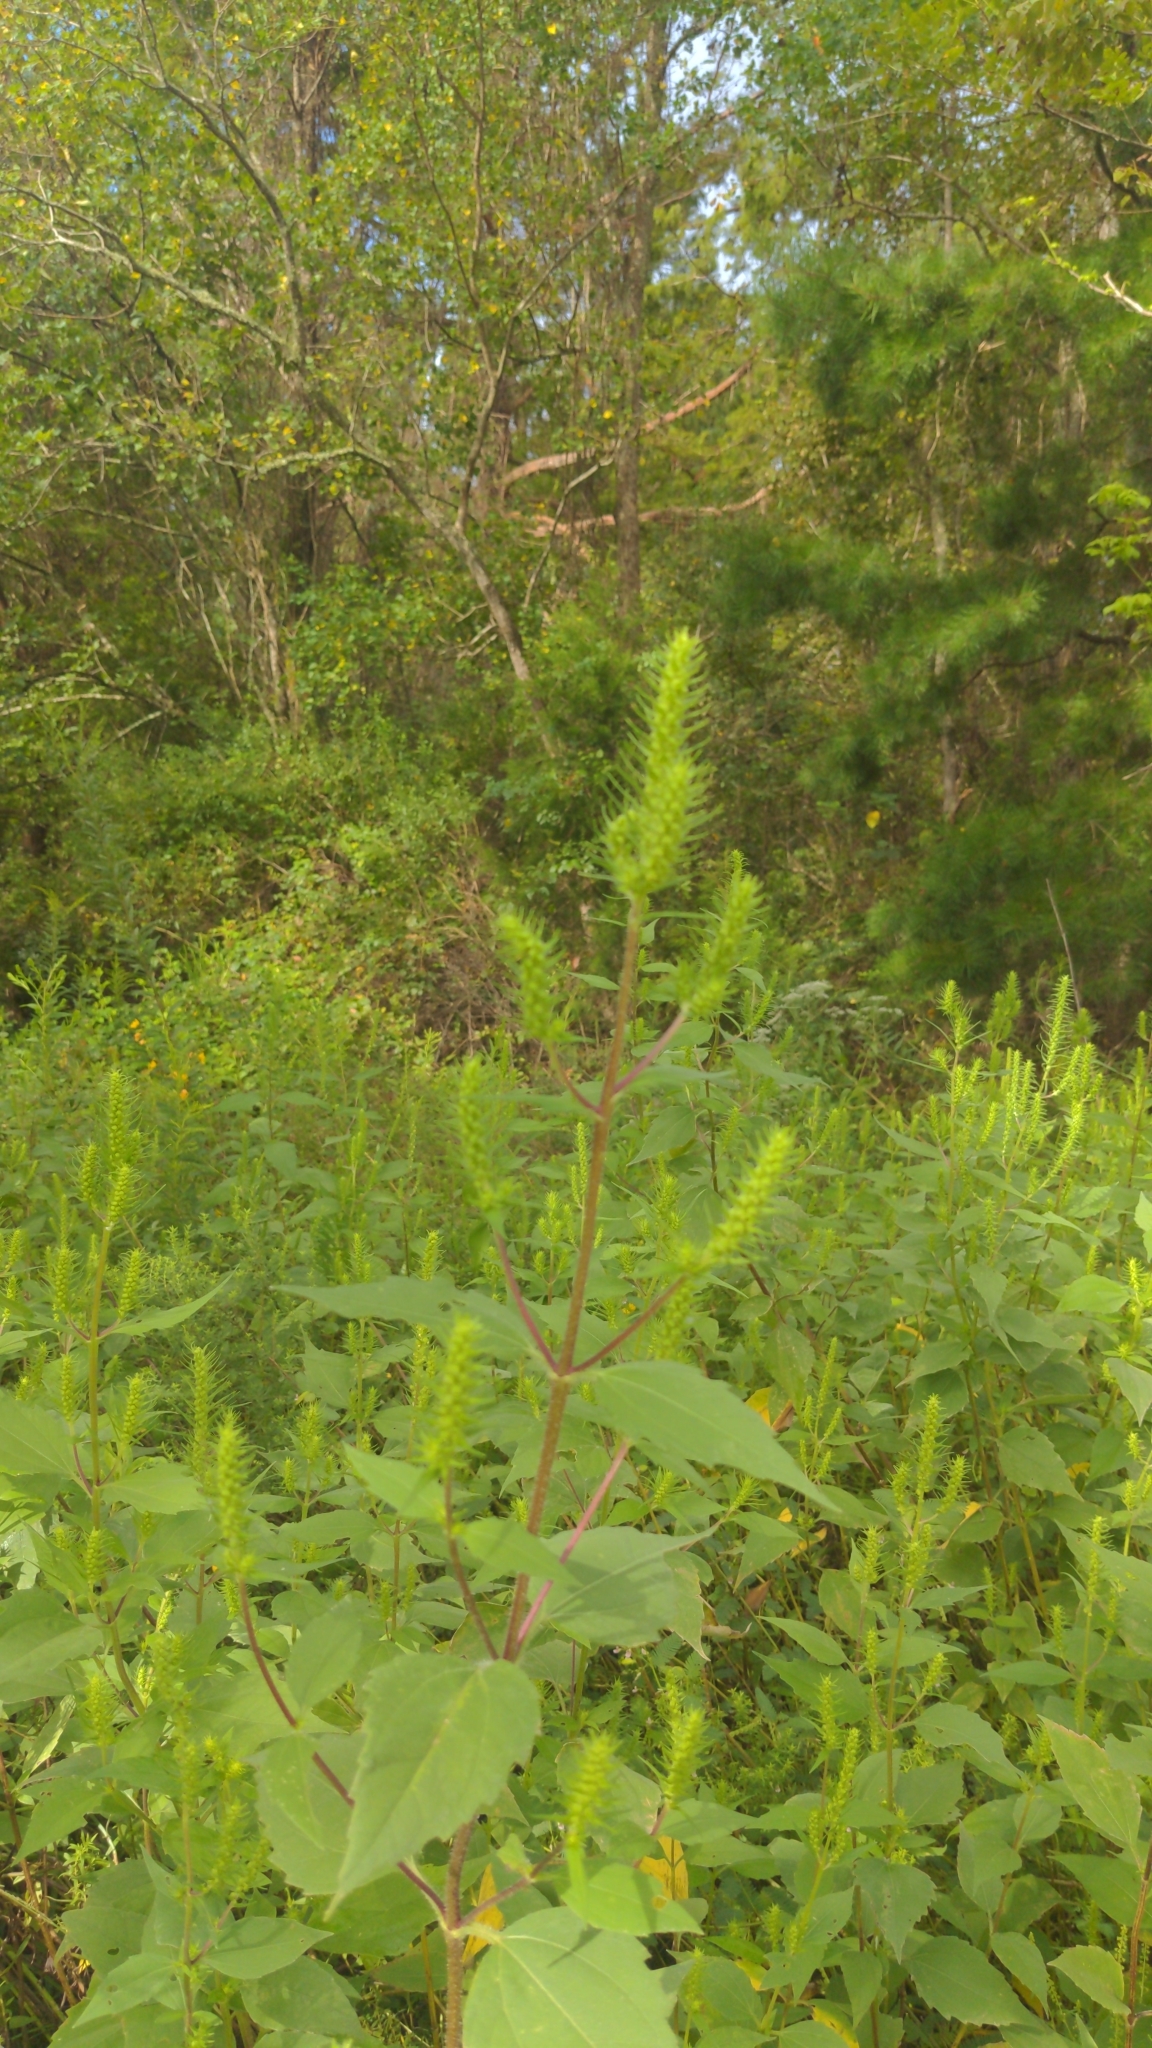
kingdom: Plantae
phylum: Tracheophyta
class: Magnoliopsida
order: Asterales
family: Asteraceae
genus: Iva
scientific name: Iva annua
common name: Marsh-elder
